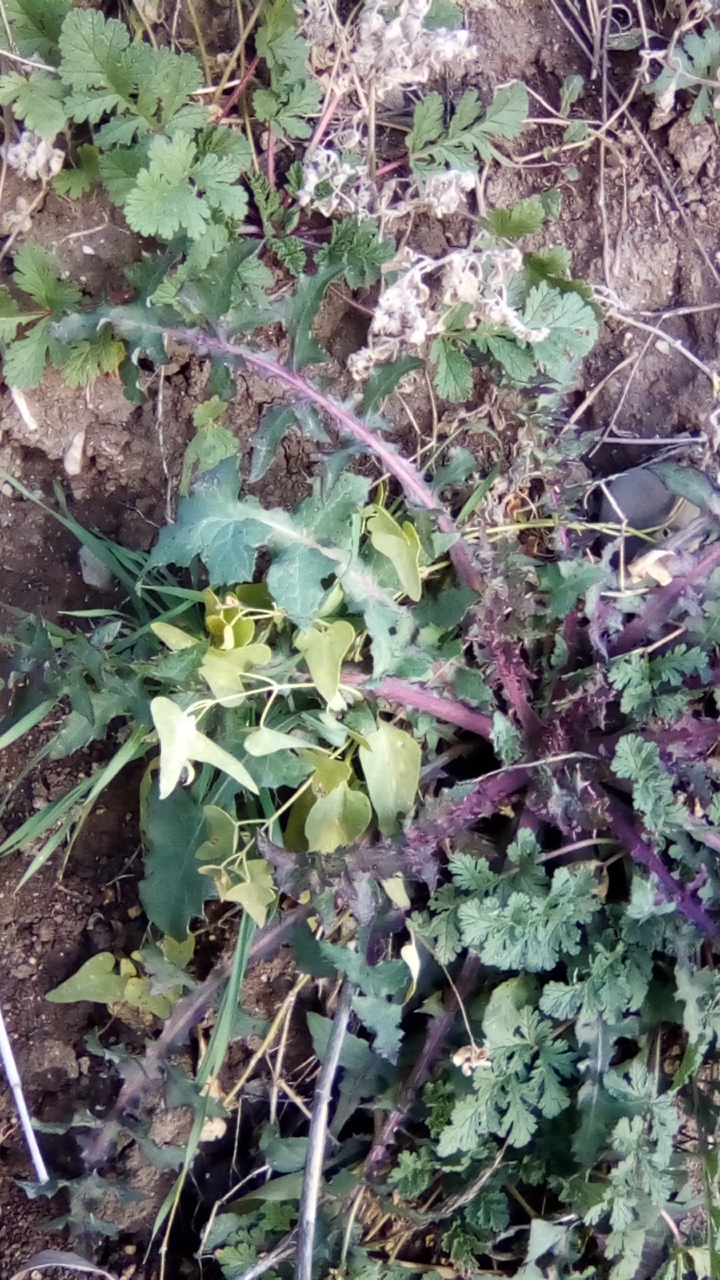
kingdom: Plantae
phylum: Tracheophyta
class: Magnoliopsida
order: Gentianales
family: Apocynaceae
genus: Cynanchum
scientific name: Cynanchum acutum
